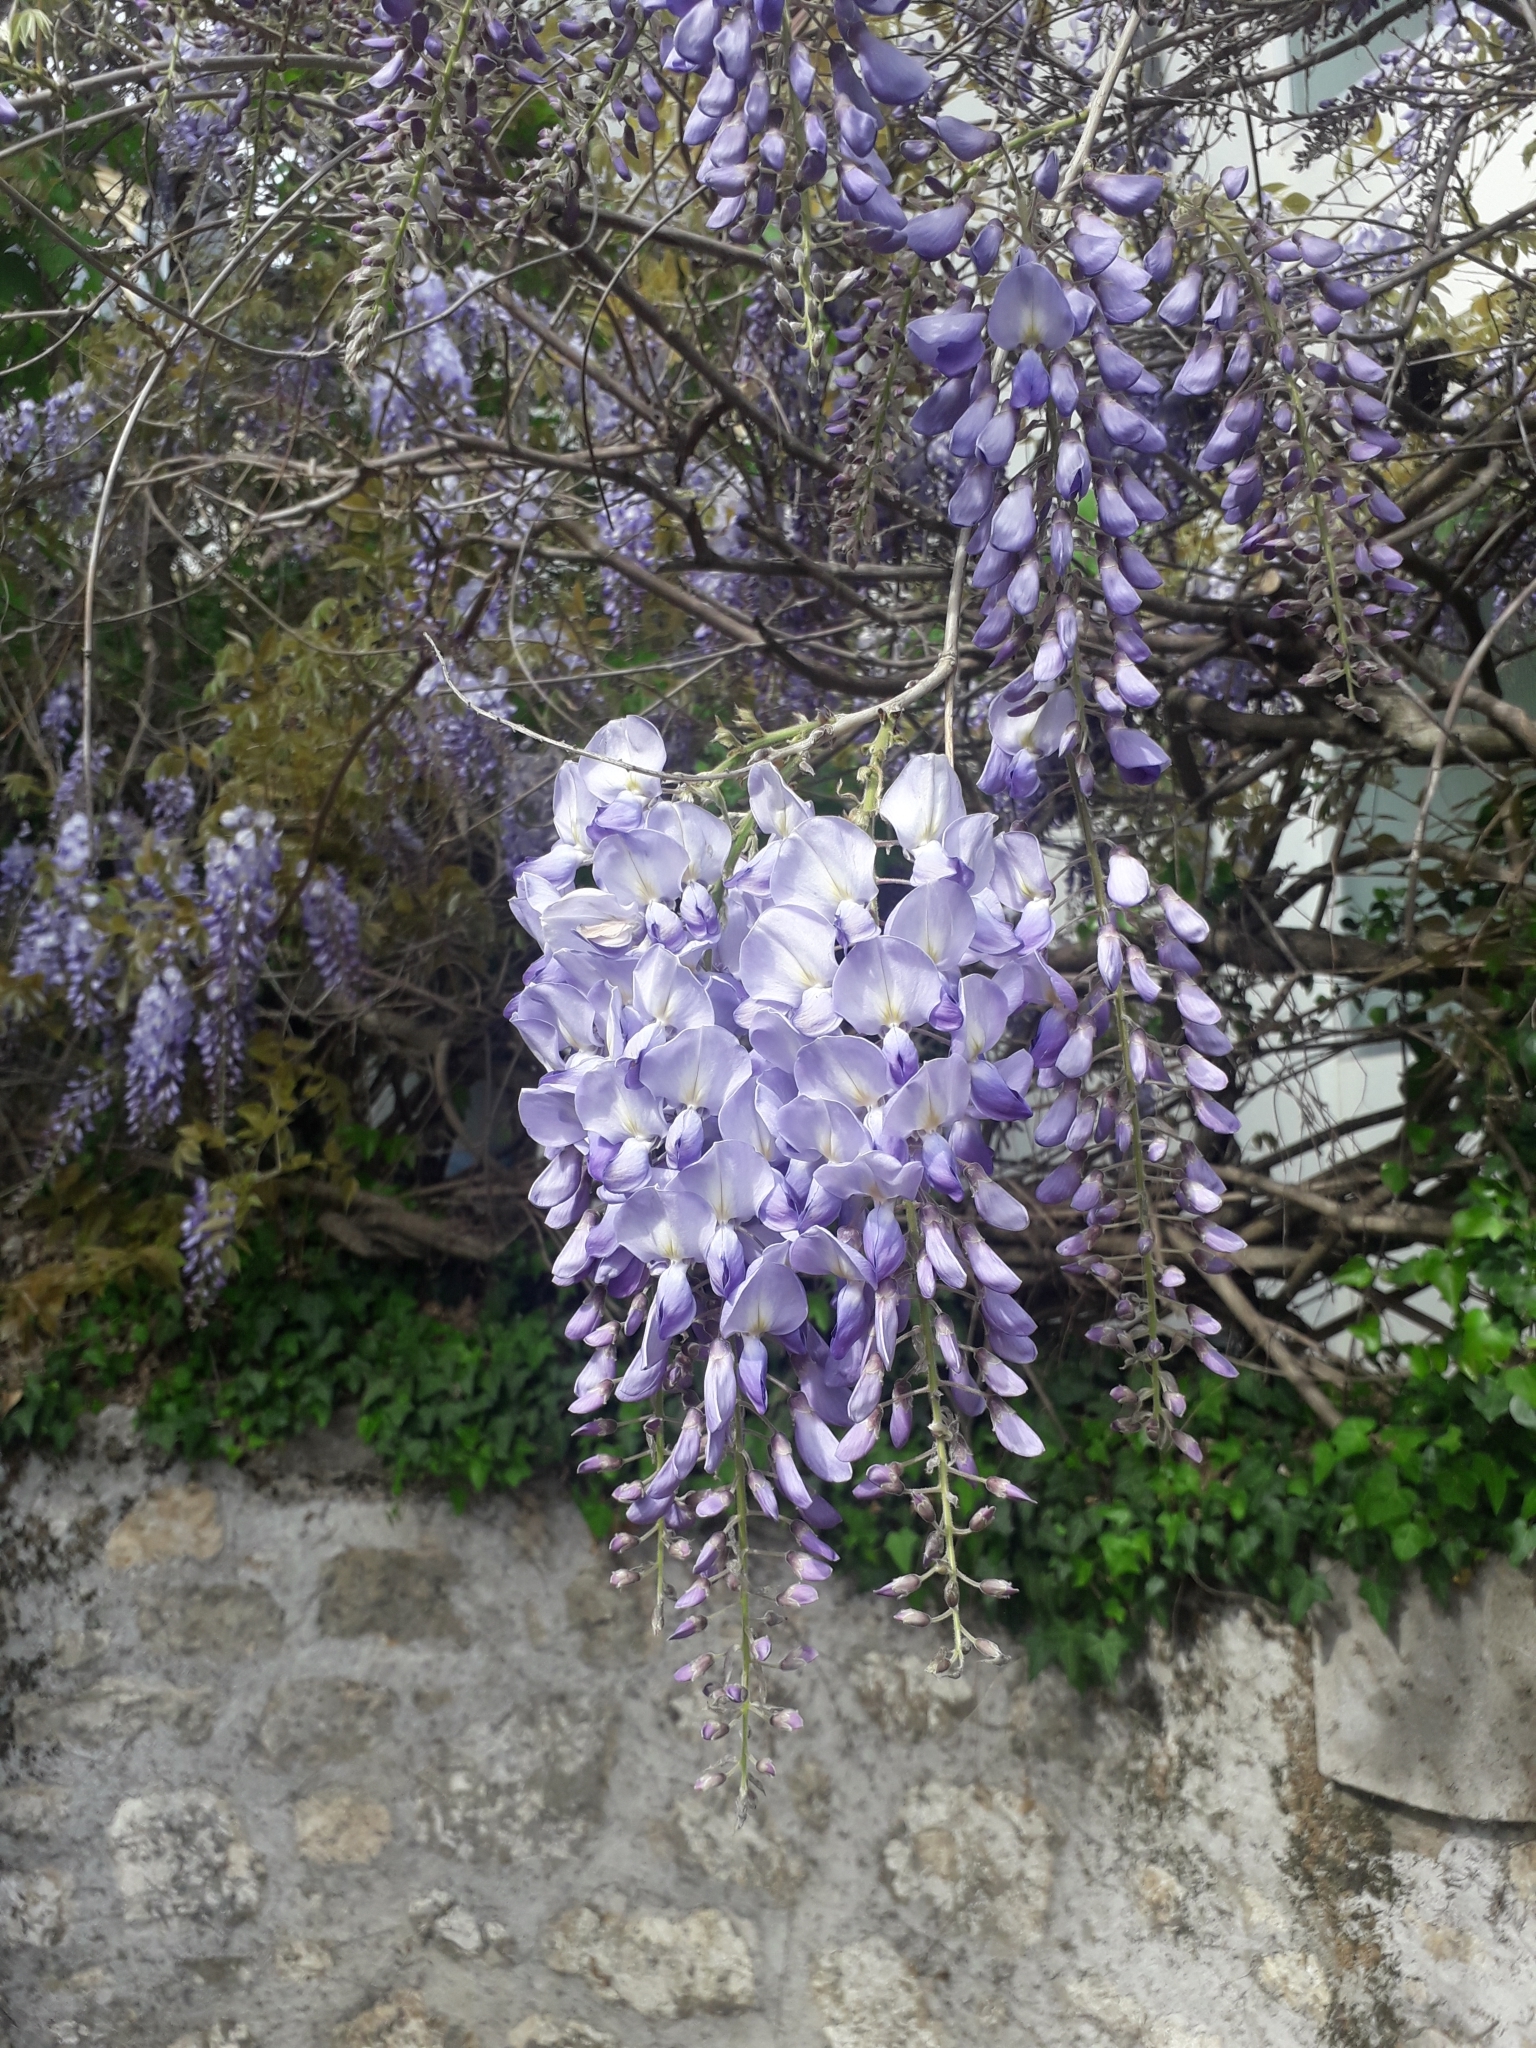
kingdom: Plantae
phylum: Tracheophyta
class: Magnoliopsida
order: Fabales
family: Fabaceae
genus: Wisteria
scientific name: Wisteria sinensis
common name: Chinese wisteria
